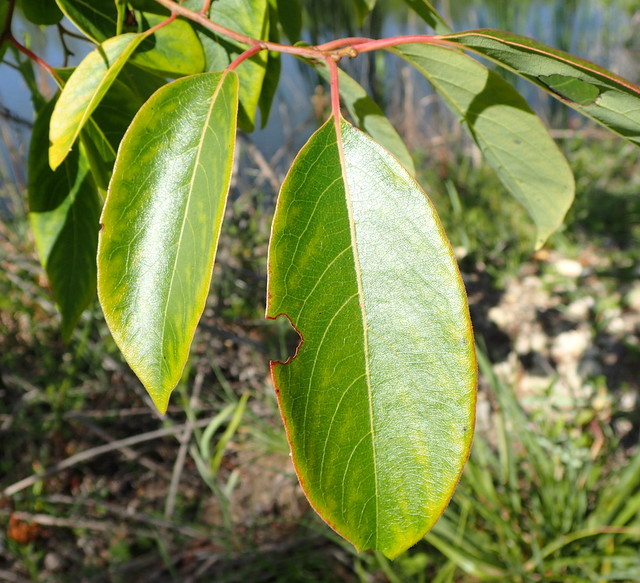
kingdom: Plantae
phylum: Tracheophyta
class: Magnoliopsida
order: Ericales
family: Ebenaceae
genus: Diospyros
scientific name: Diospyros virginiana
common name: Persimmon
